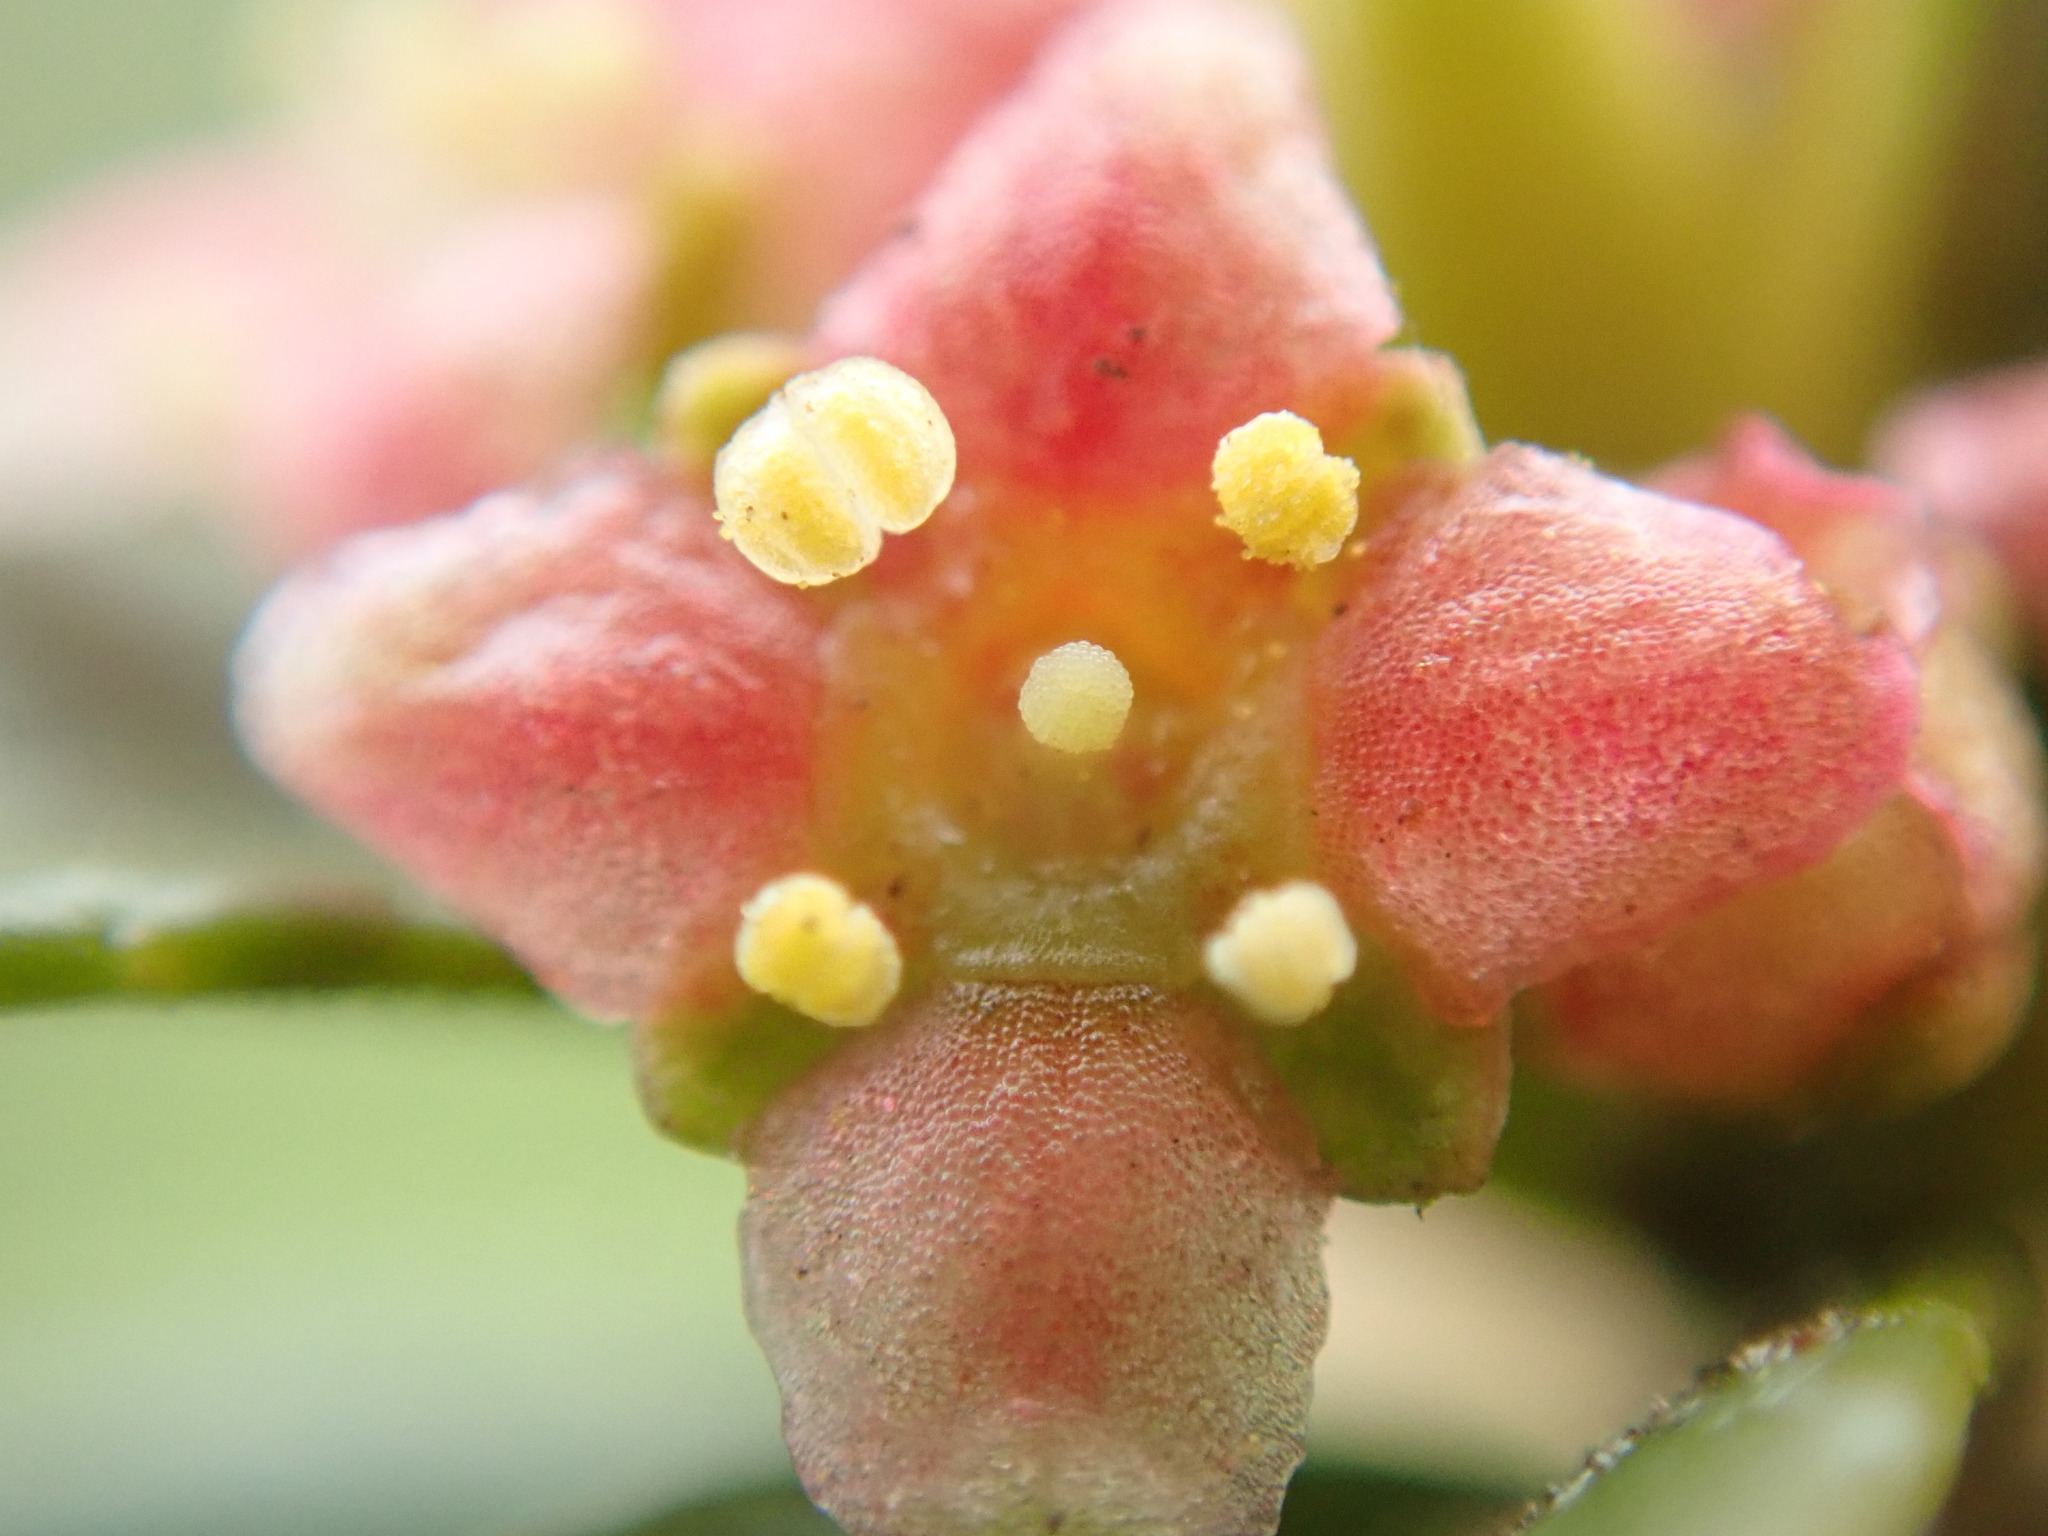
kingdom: Plantae
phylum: Tracheophyta
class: Magnoliopsida
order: Celastrales
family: Celastraceae
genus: Paxistima
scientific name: Paxistima myrsinites
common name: Mountain-lover
